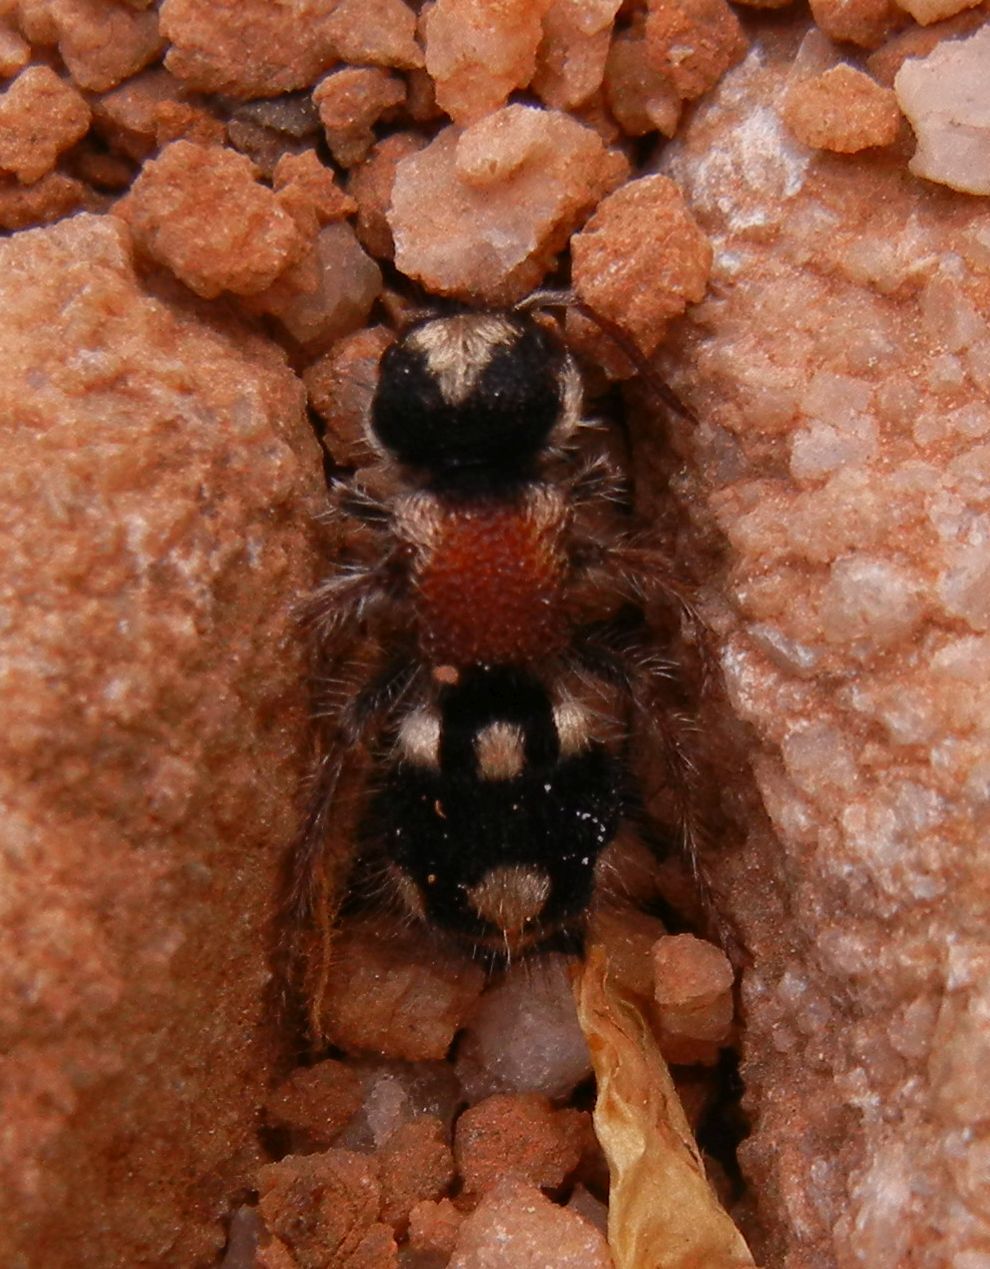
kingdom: Animalia
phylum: Arthropoda
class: Insecta
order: Hymenoptera
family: Mutillidae
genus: Ronisia
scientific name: Ronisia barbarula
